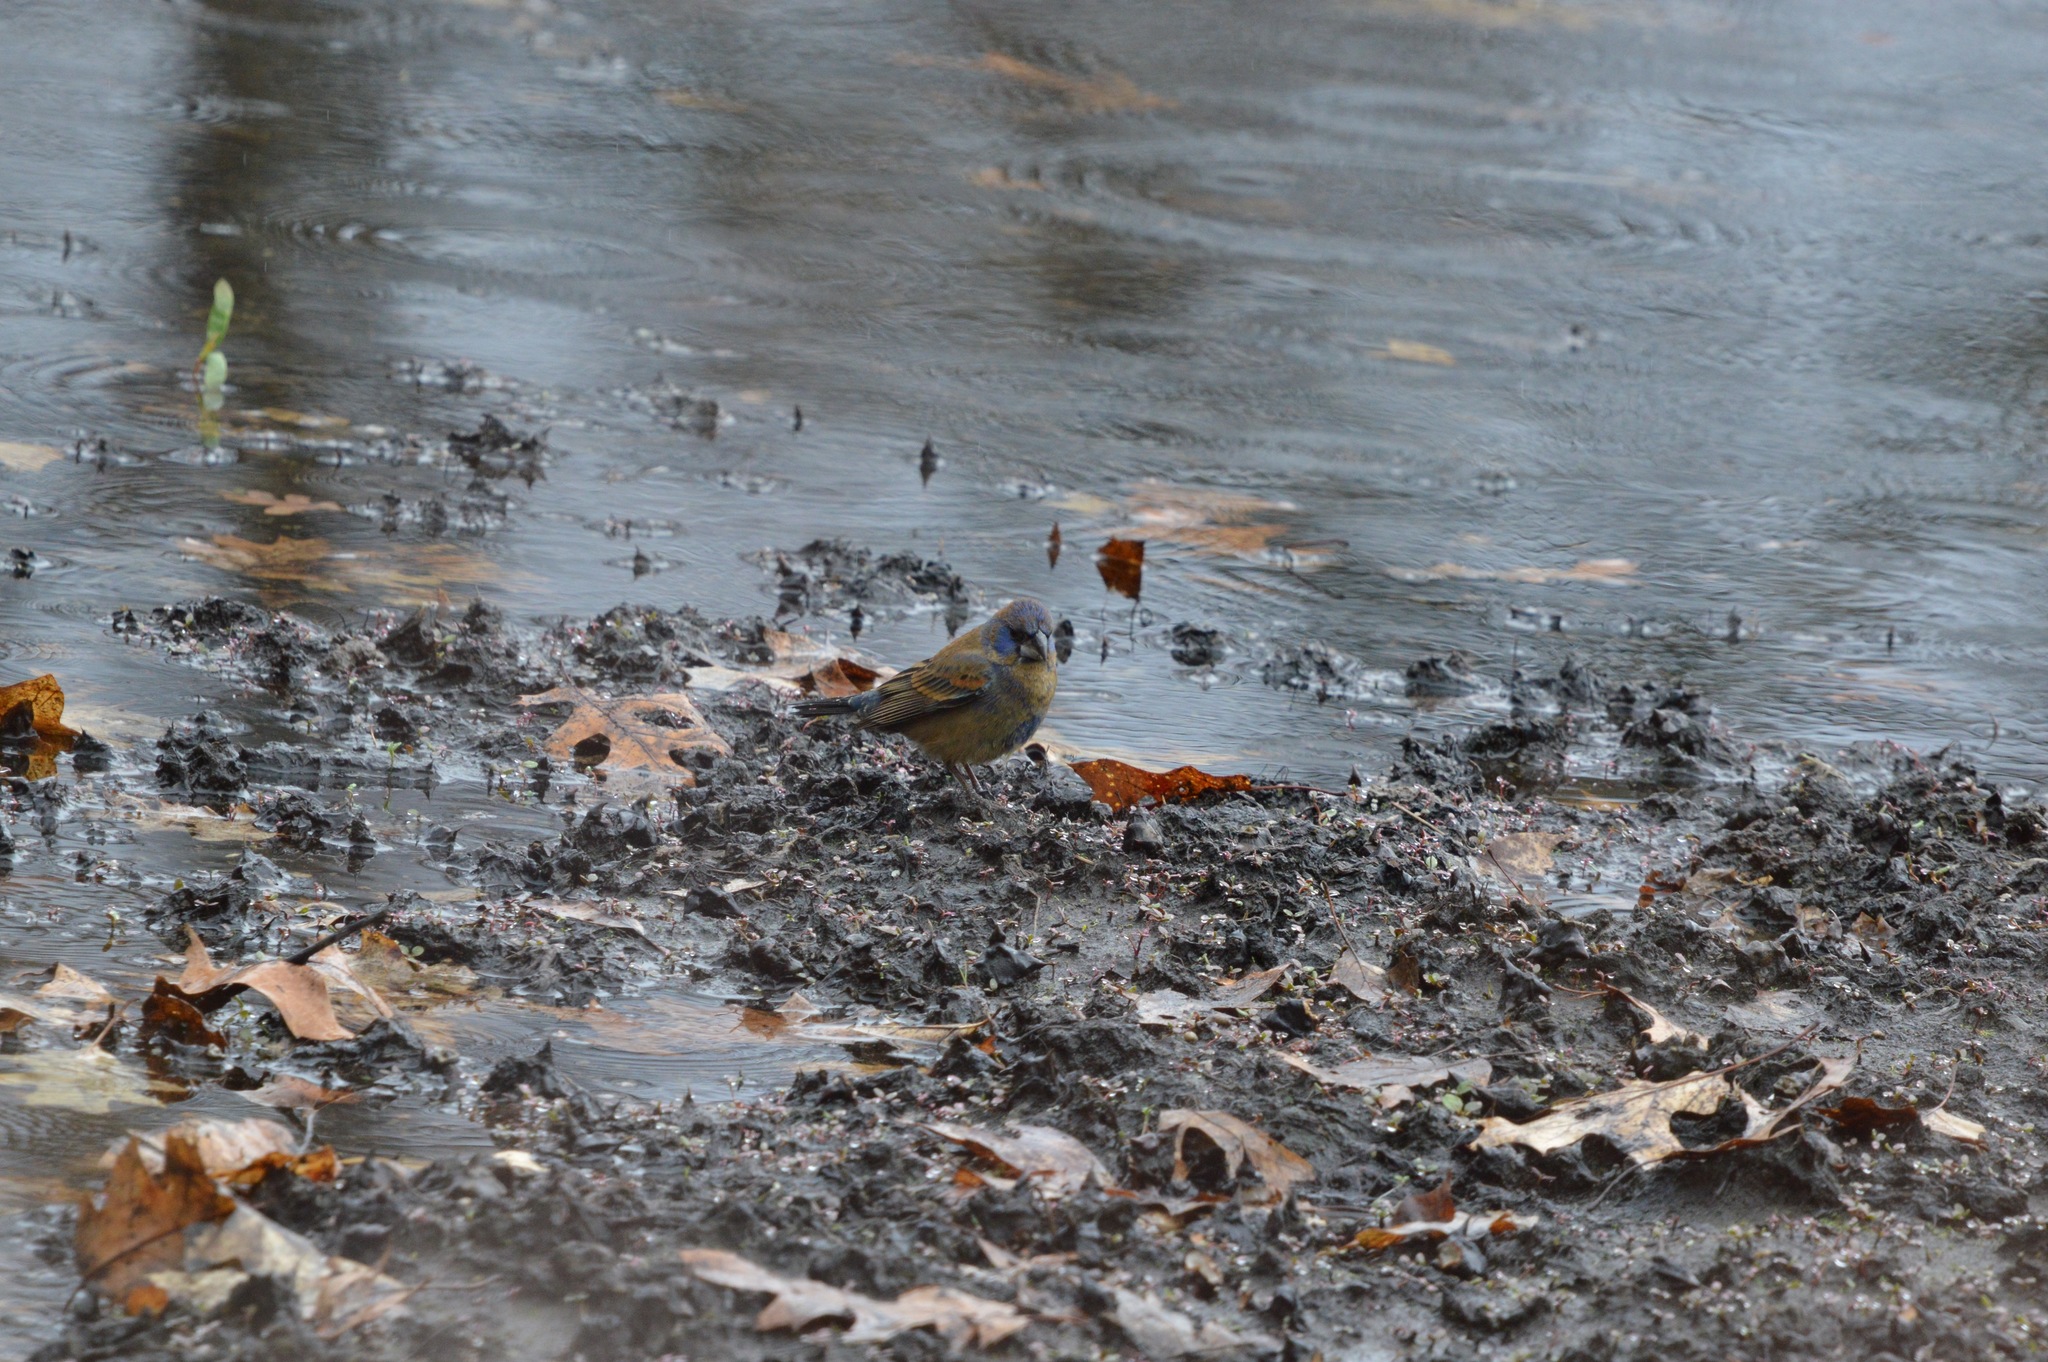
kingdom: Animalia
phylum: Chordata
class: Aves
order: Passeriformes
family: Cardinalidae
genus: Passerina
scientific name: Passerina caerulea
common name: Blue grosbeak
